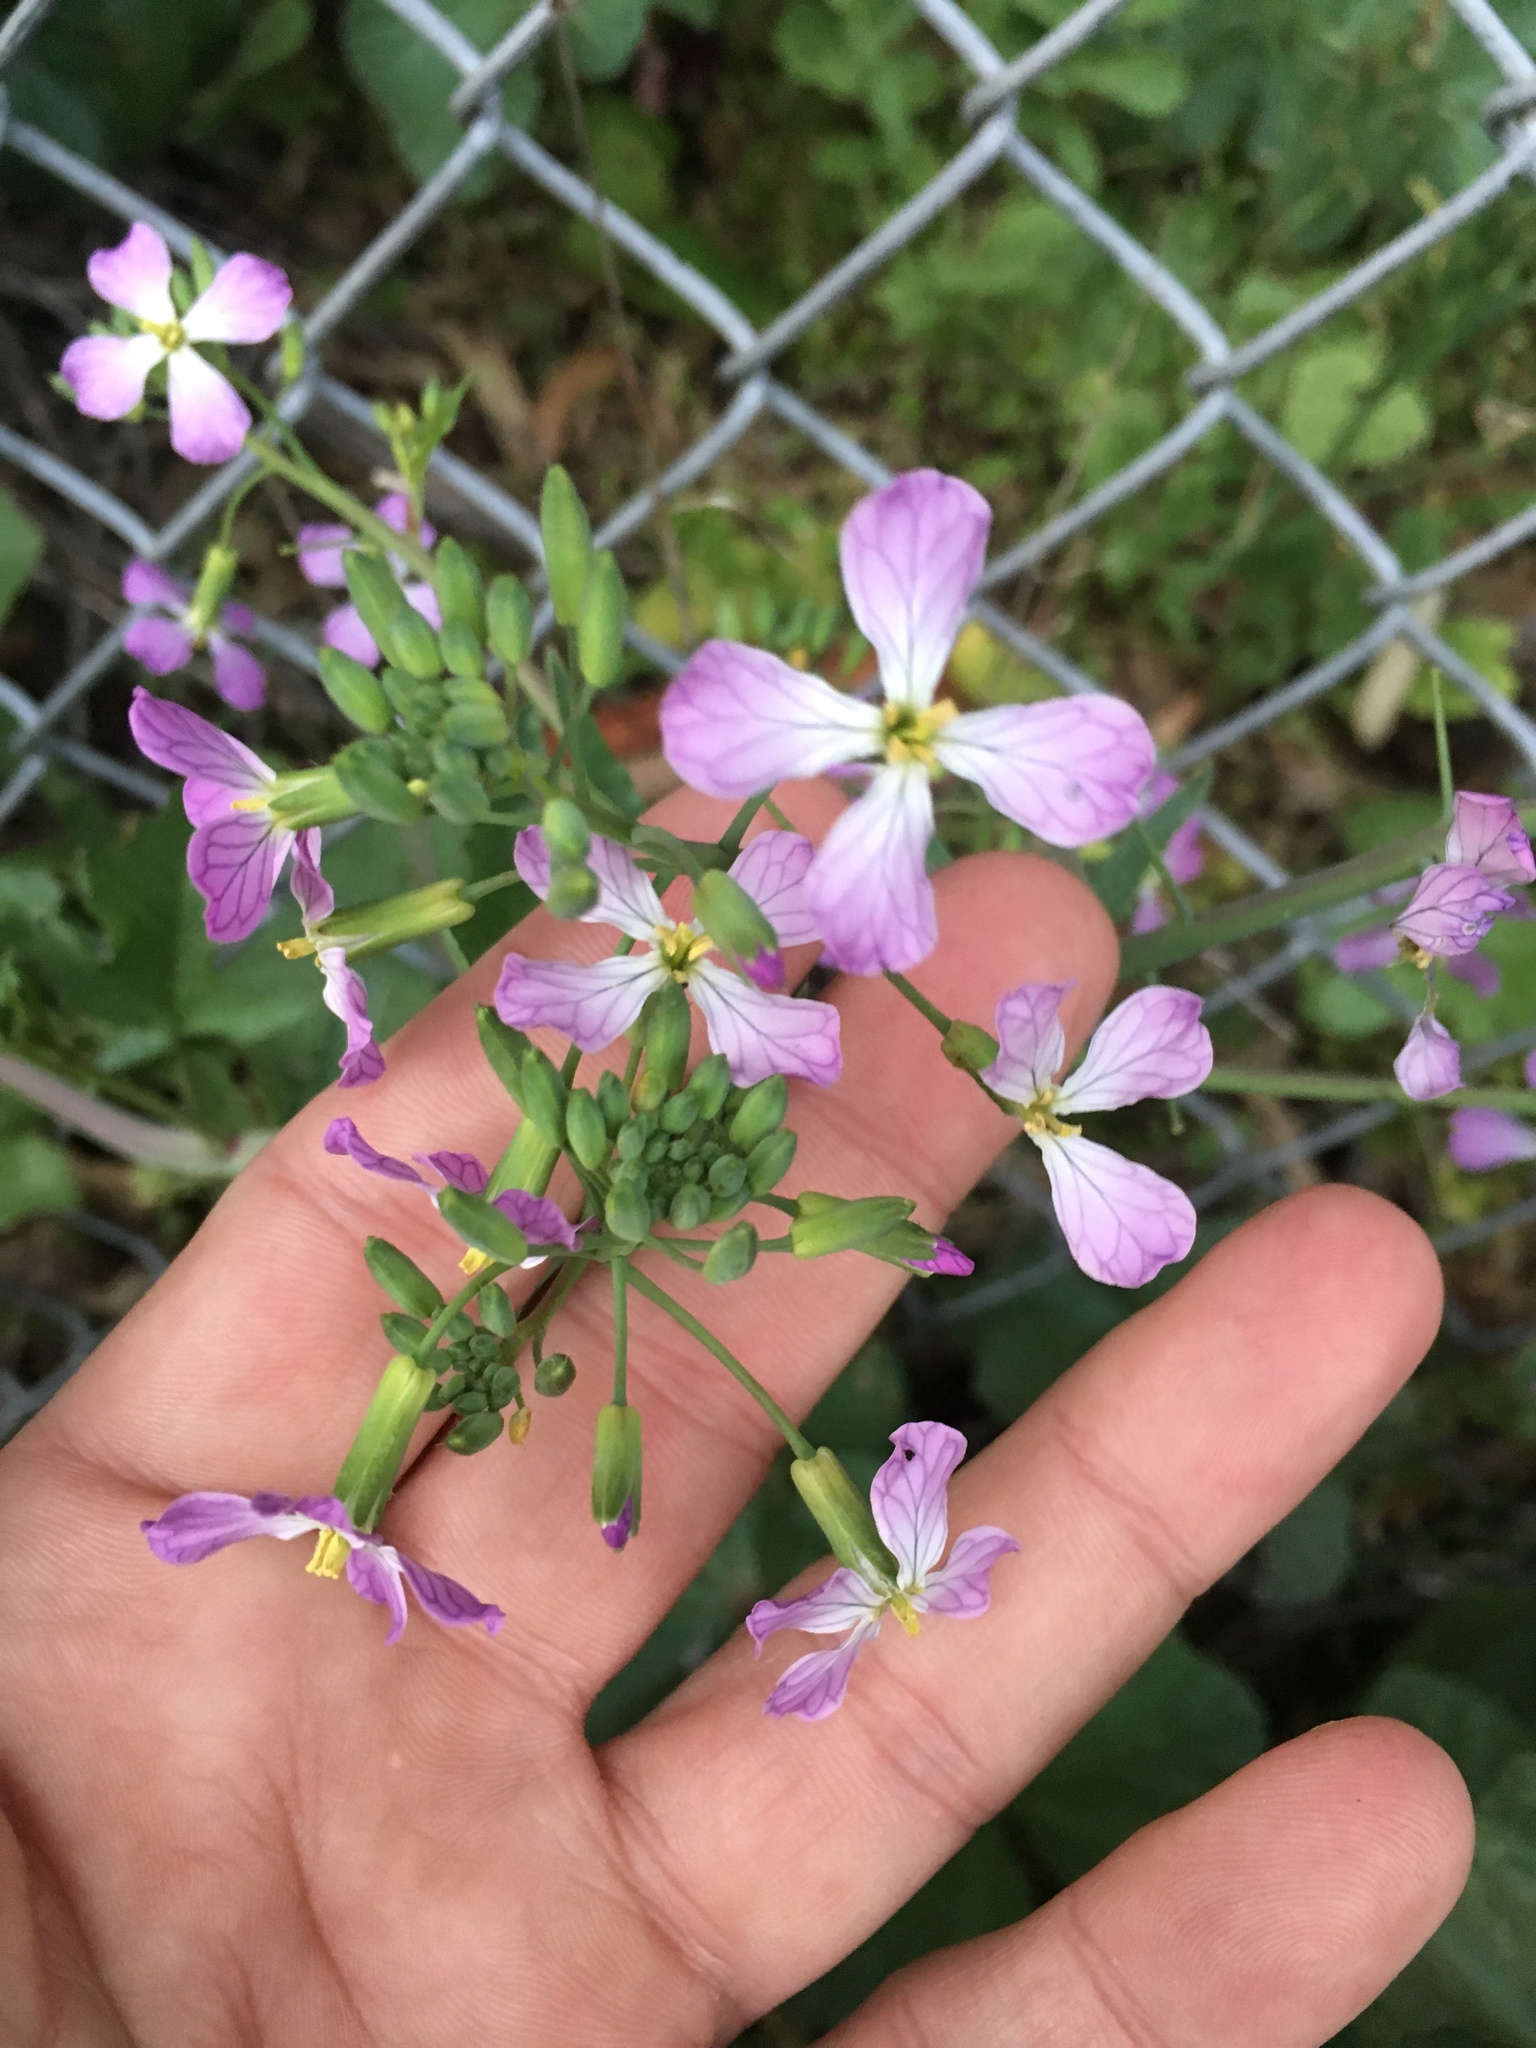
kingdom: Plantae
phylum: Tracheophyta
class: Magnoliopsida
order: Brassicales
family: Brassicaceae
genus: Raphanus
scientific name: Raphanus sativus
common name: Cultivated radish
